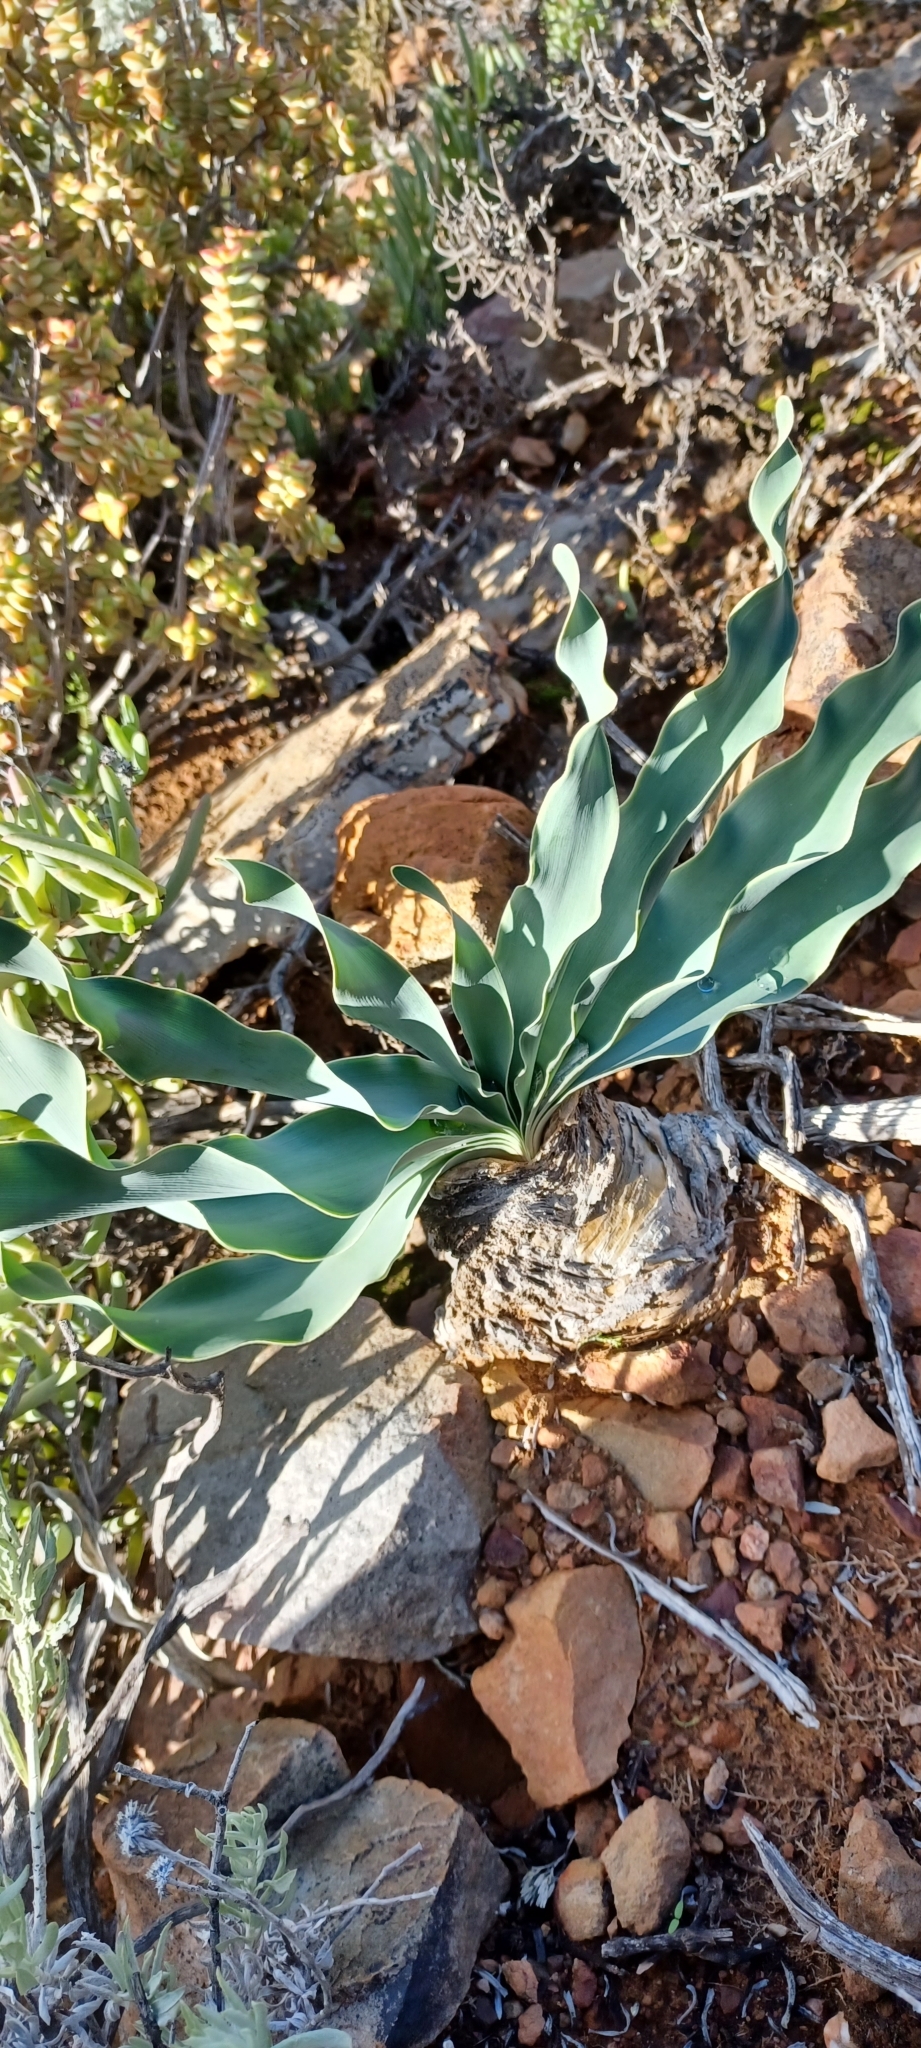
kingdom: Plantae
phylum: Tracheophyta
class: Liliopsida
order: Asparagales
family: Amaryllidaceae
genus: Boophone
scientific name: Boophone disticha
